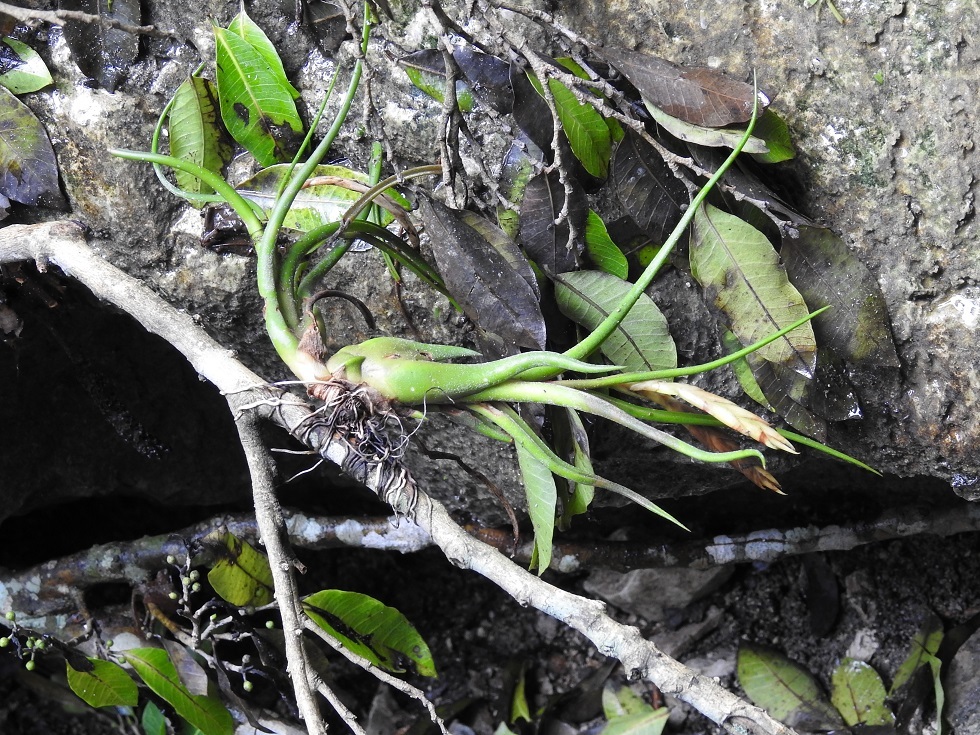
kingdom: Plantae
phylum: Tracheophyta
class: Liliopsida
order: Poales
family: Bromeliaceae
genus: Tillandsia
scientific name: Tillandsia caput-medusae
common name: Octopus plant
